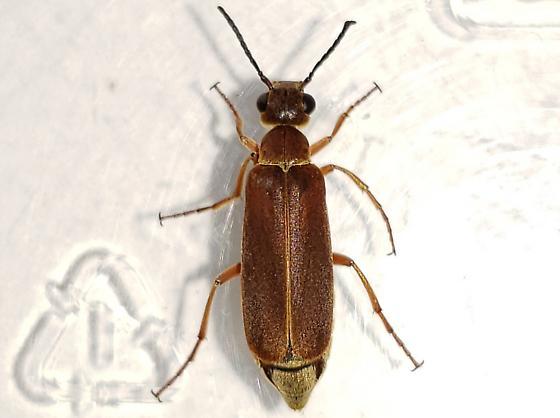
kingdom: Animalia
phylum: Arthropoda
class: Insecta
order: Coleoptera
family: Meloidae
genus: Epicauta
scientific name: Epicauta batesii
